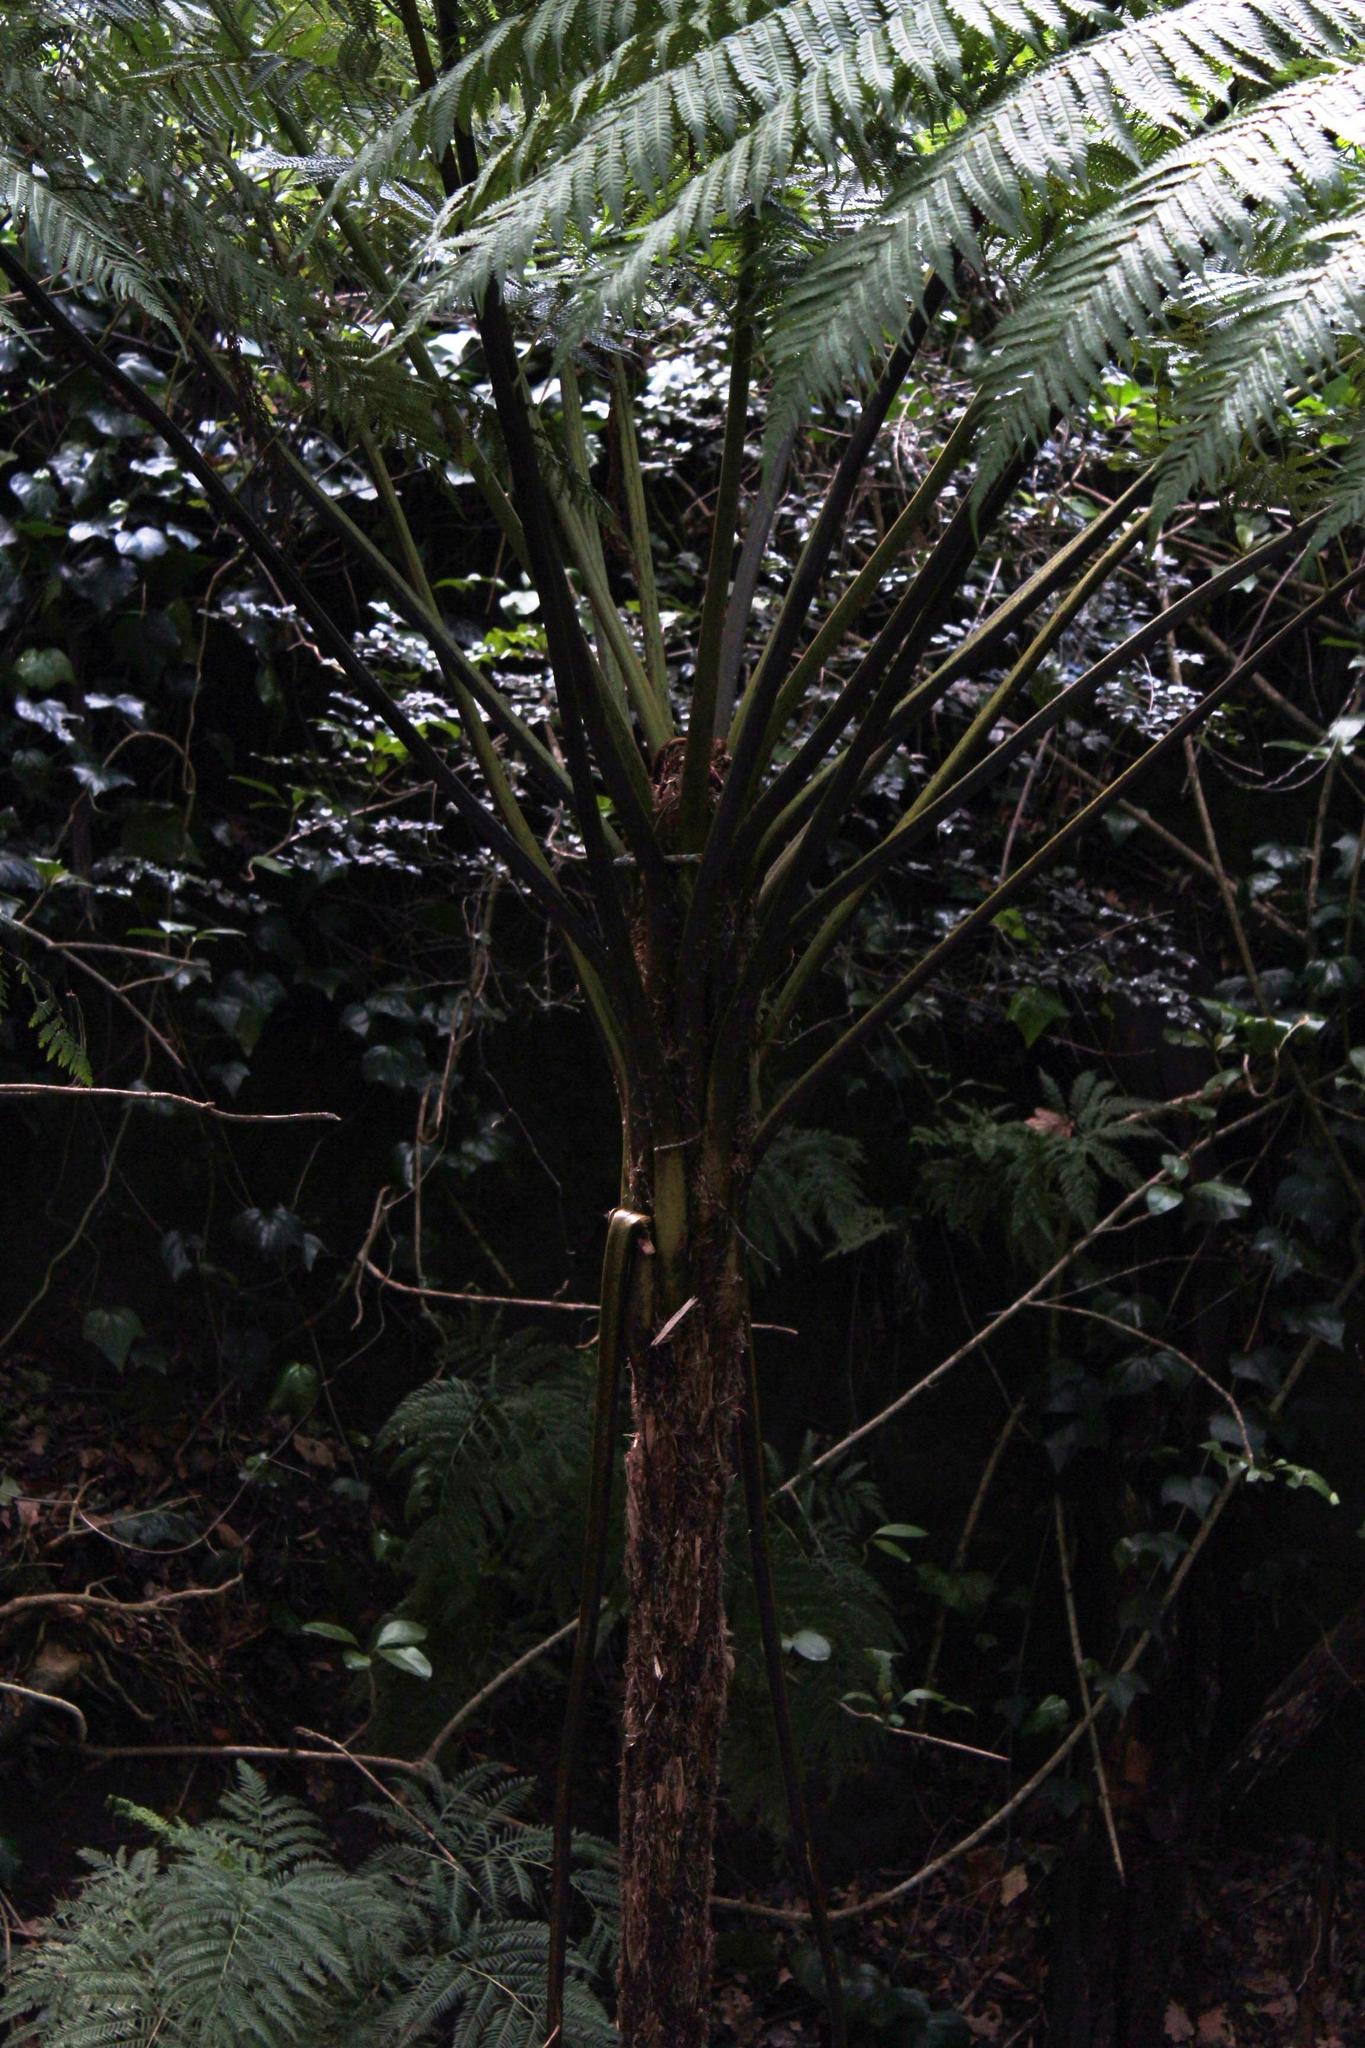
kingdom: Plantae
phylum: Tracheophyta
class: Polypodiopsida
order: Cyatheales
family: Cyatheaceae
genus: Sphaeropteris
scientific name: Sphaeropteris cooperi
